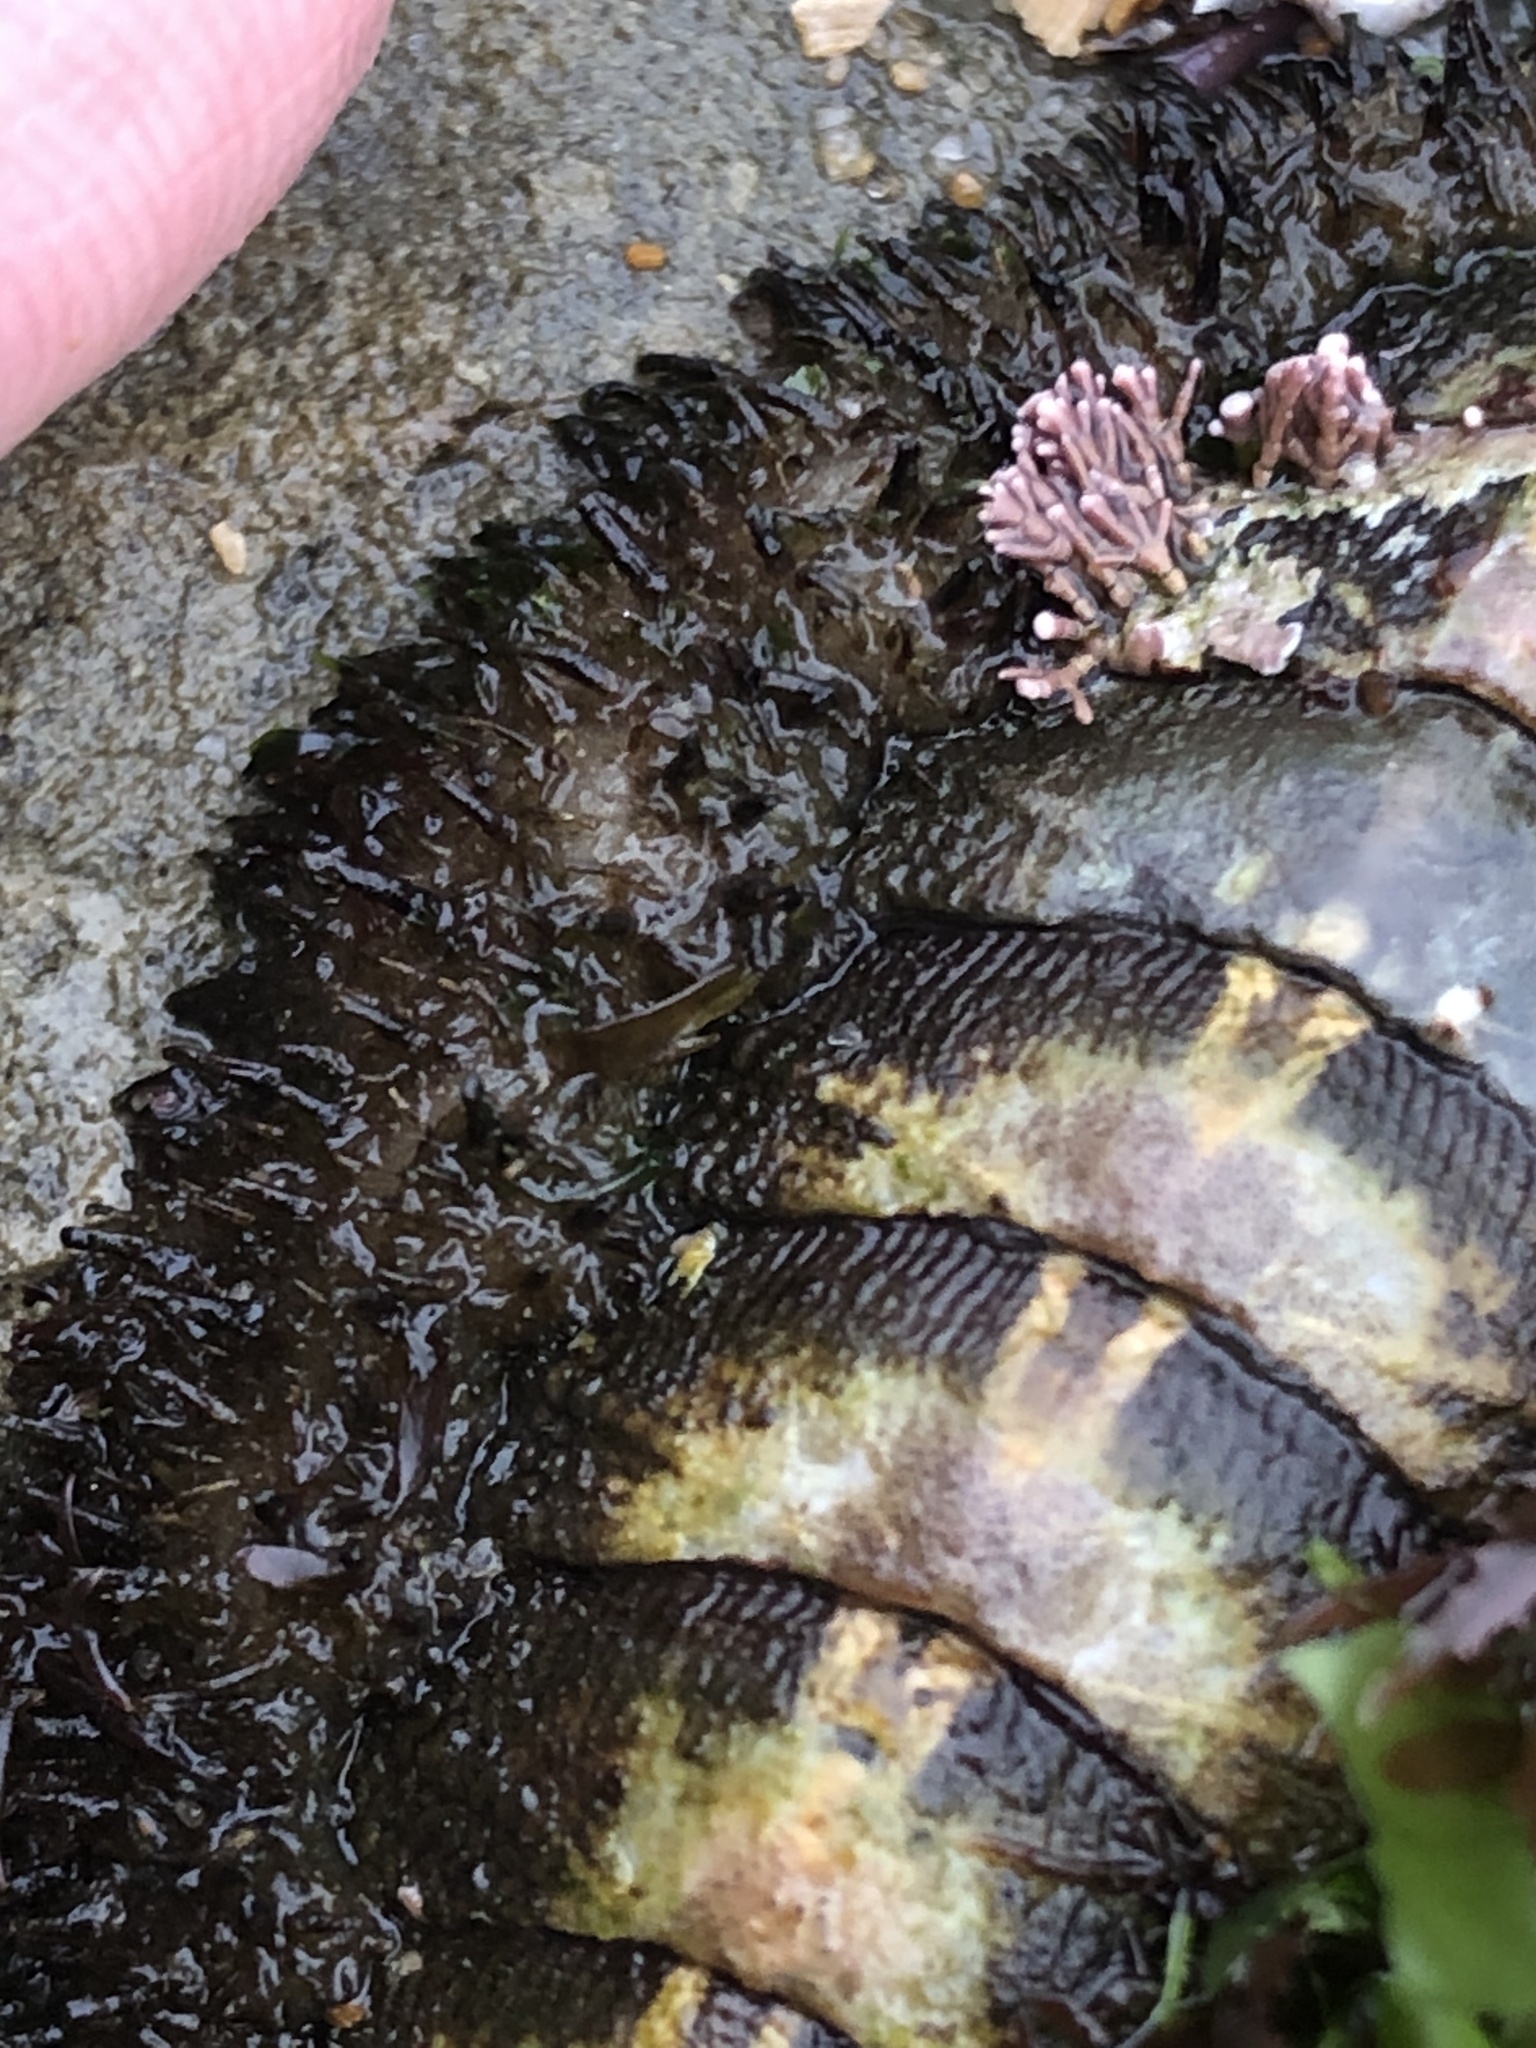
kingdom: Animalia
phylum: Mollusca
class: Polyplacophora
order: Chitonida
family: Mopaliidae
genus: Mopalia
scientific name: Mopalia muscosa
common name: Mossy chiton
